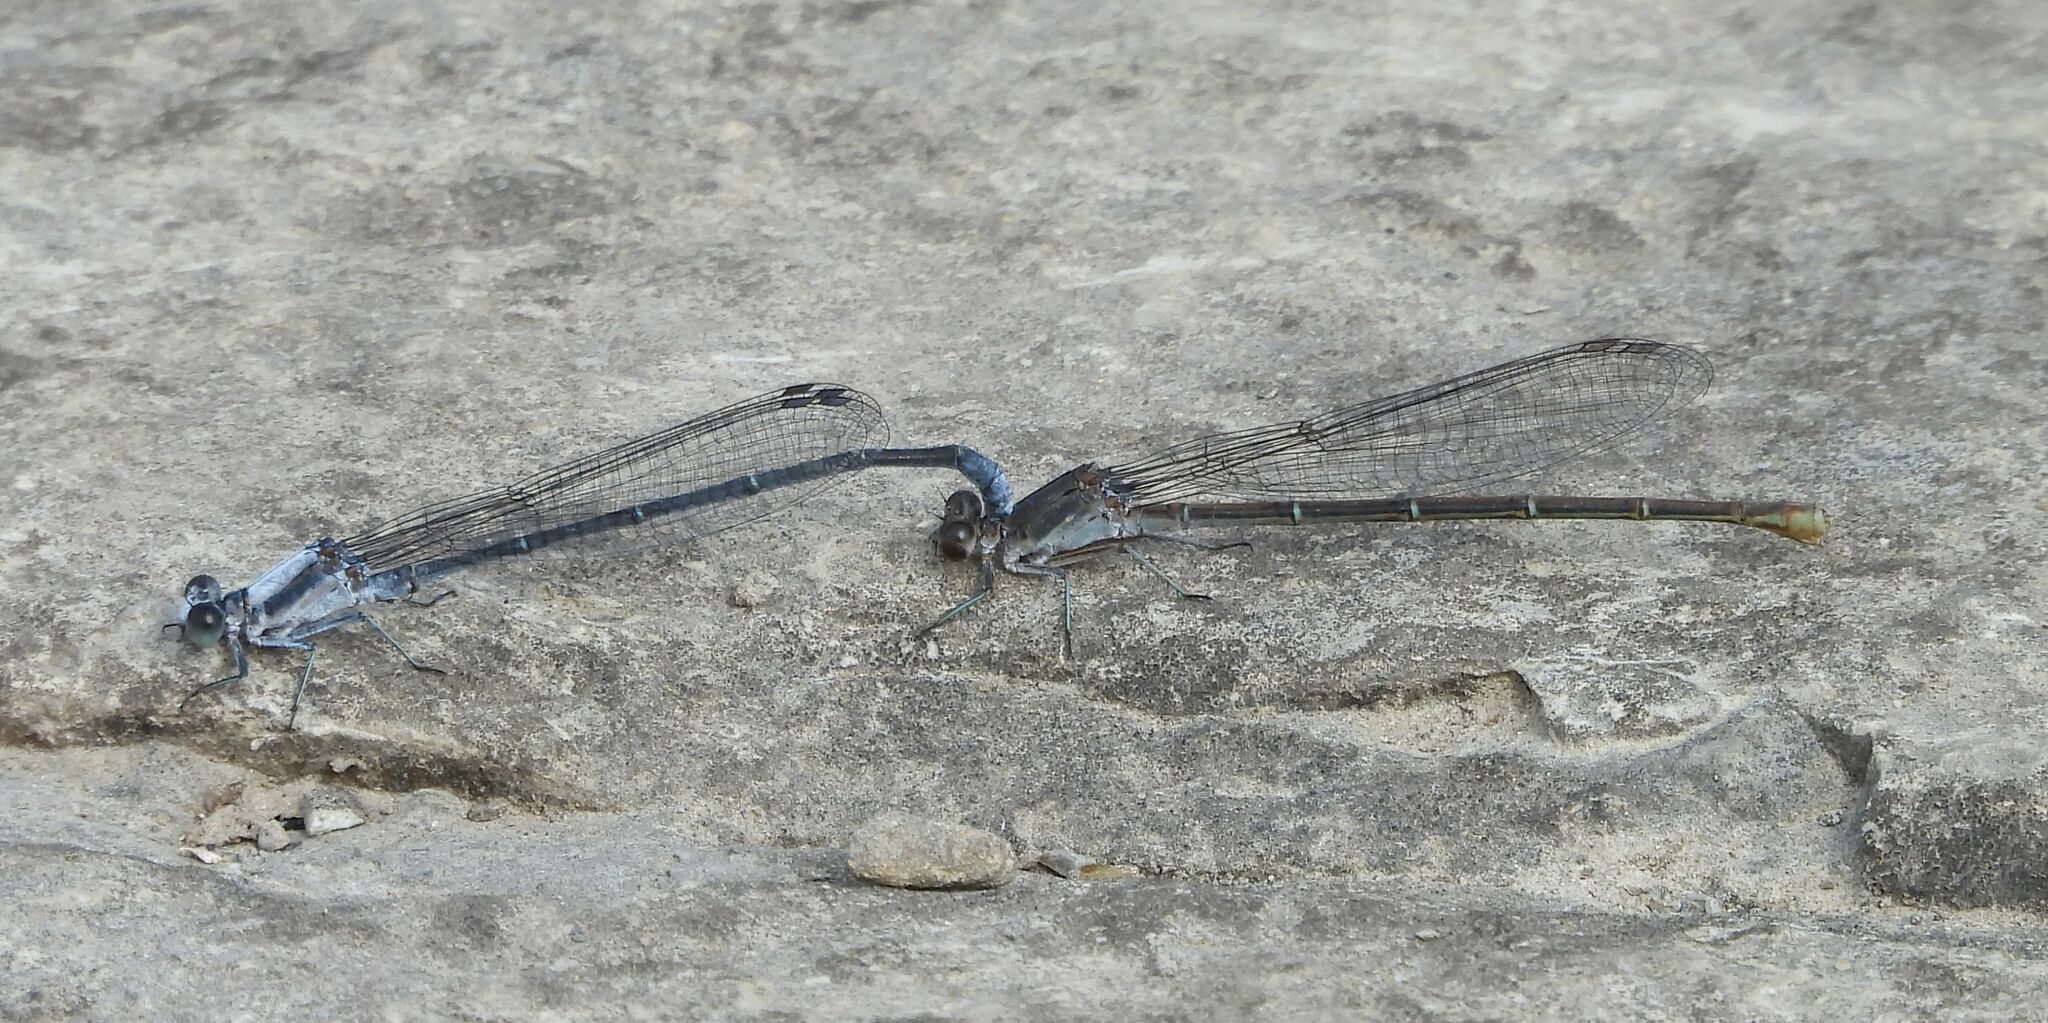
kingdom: Animalia
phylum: Arthropoda
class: Insecta
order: Odonata
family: Coenagrionidae
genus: Argia
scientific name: Argia moesta
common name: Powdered dancer
